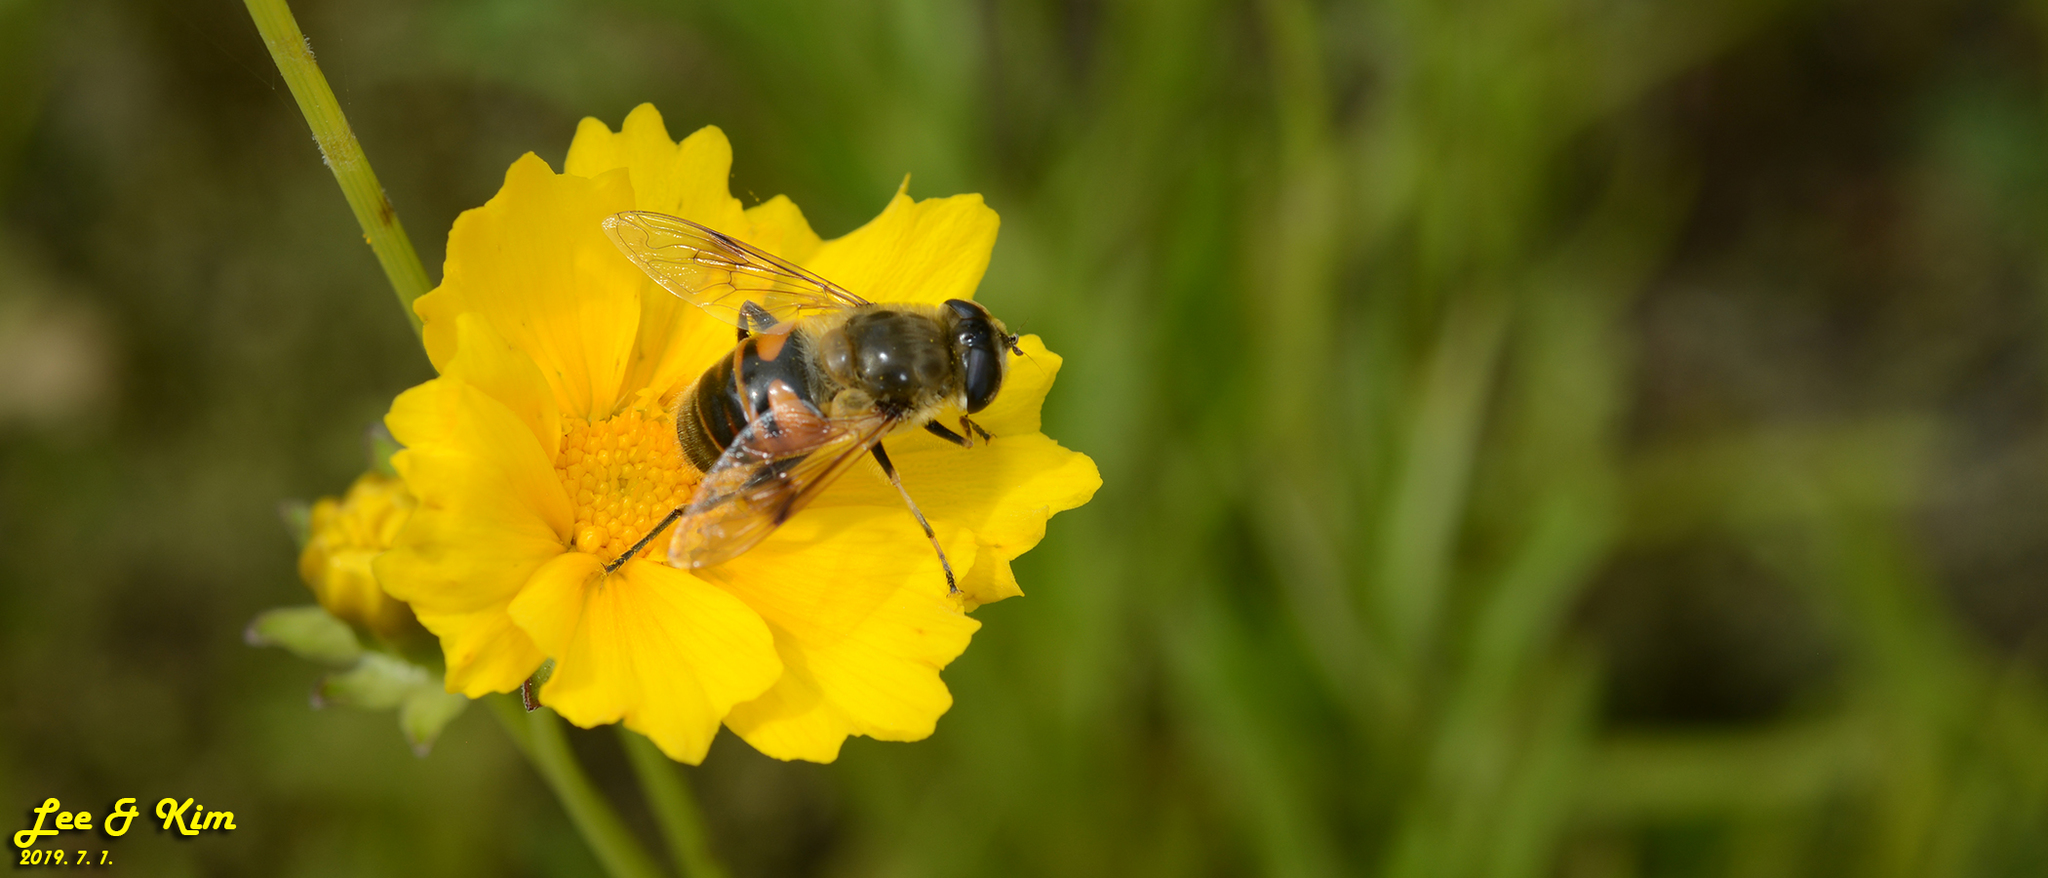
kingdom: Animalia
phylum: Arthropoda
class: Insecta
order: Diptera
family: Syrphidae
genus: Eristalis
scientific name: Eristalis tenax
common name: Drone fly
